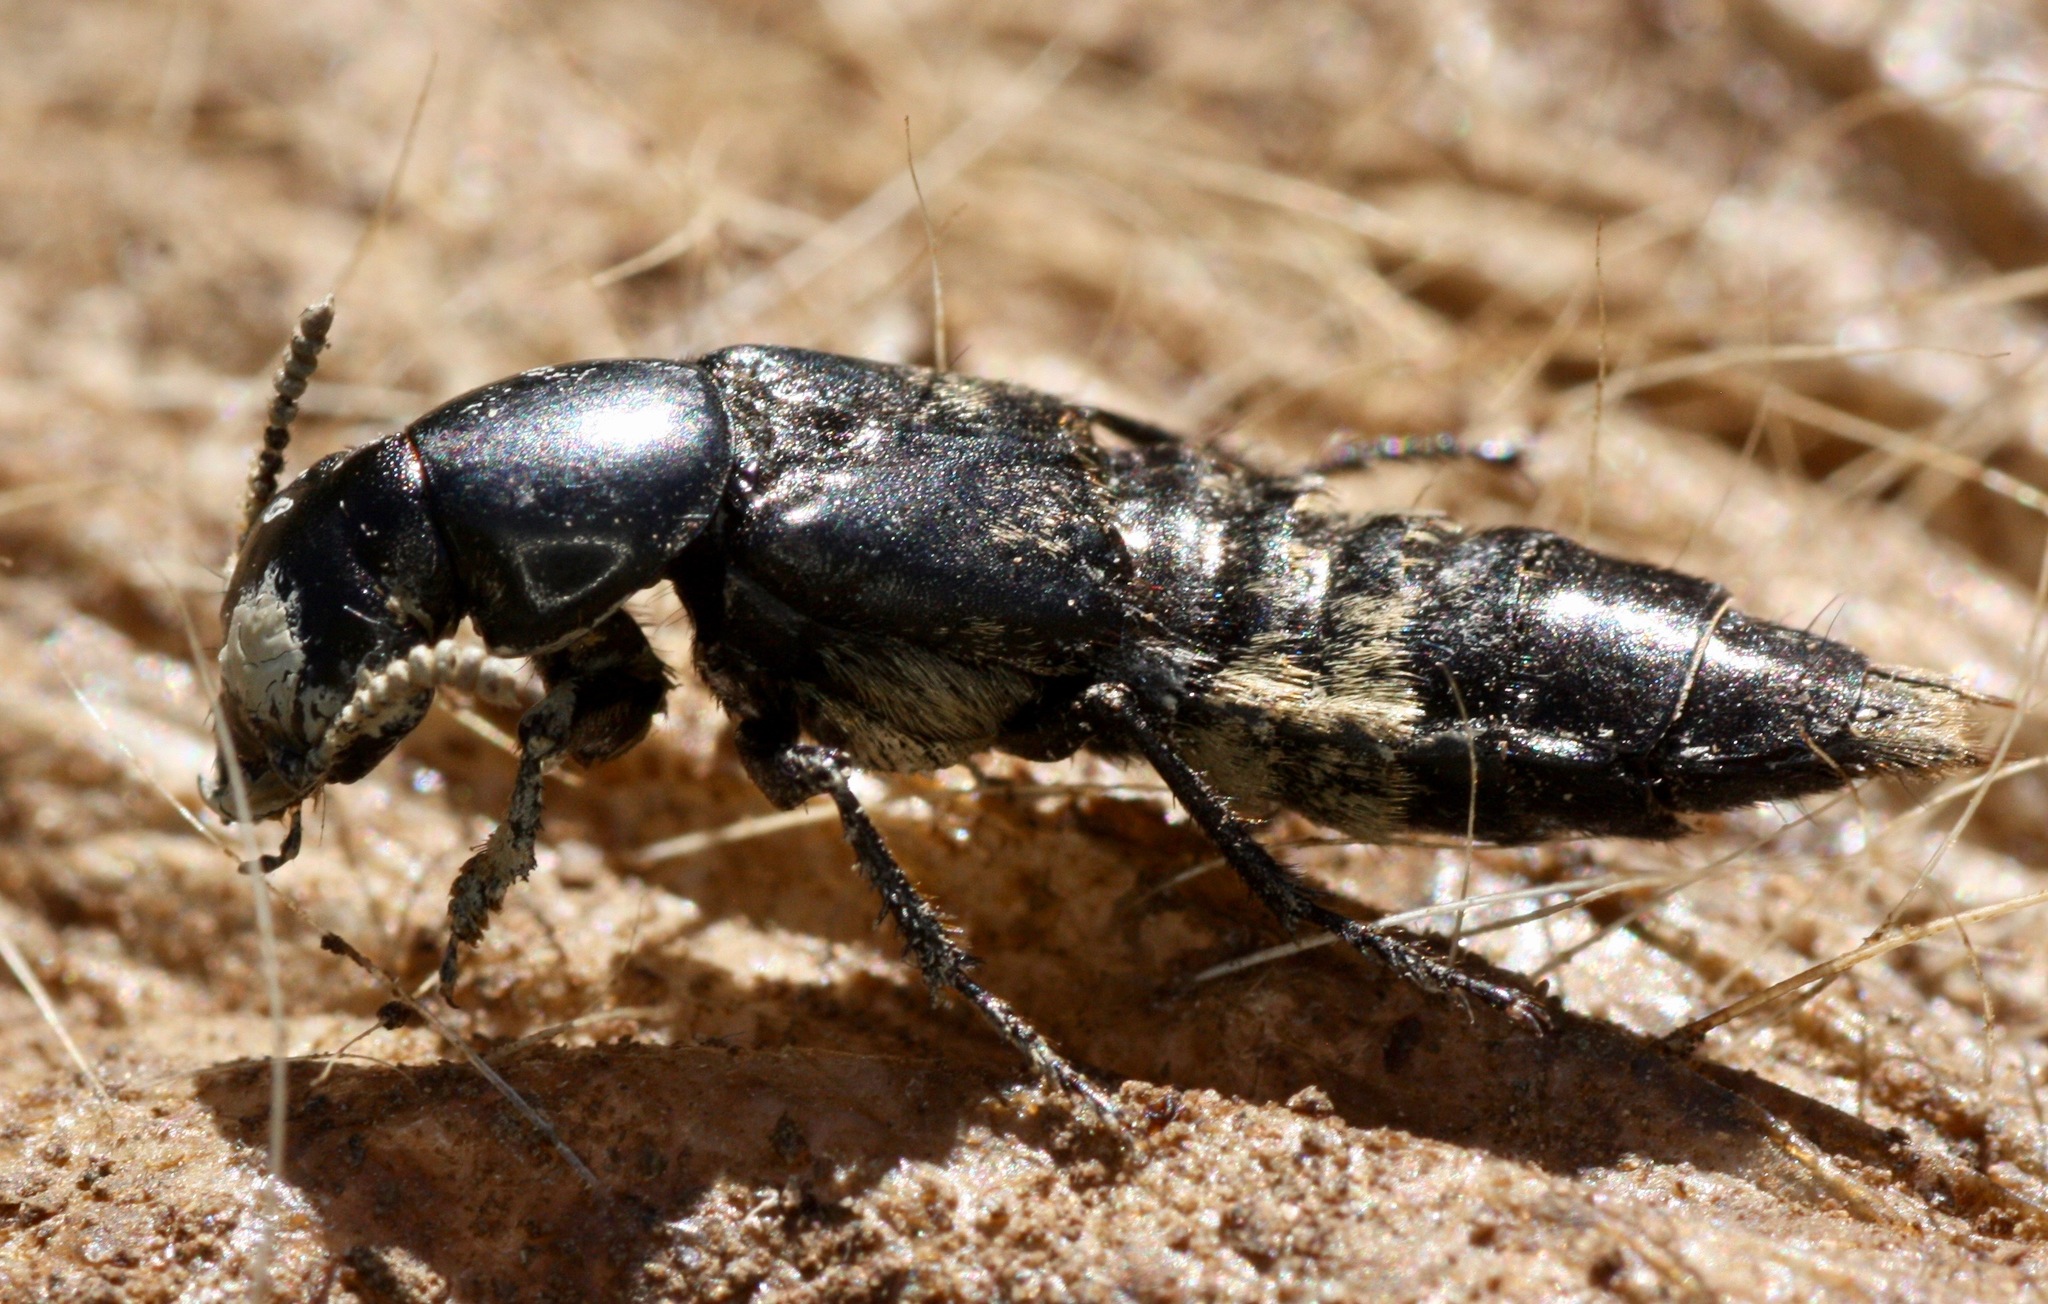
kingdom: Animalia
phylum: Arthropoda
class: Insecta
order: Coleoptera
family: Staphylinidae
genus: Creophilus
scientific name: Creophilus maxillosus
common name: Hairy rove beetle
